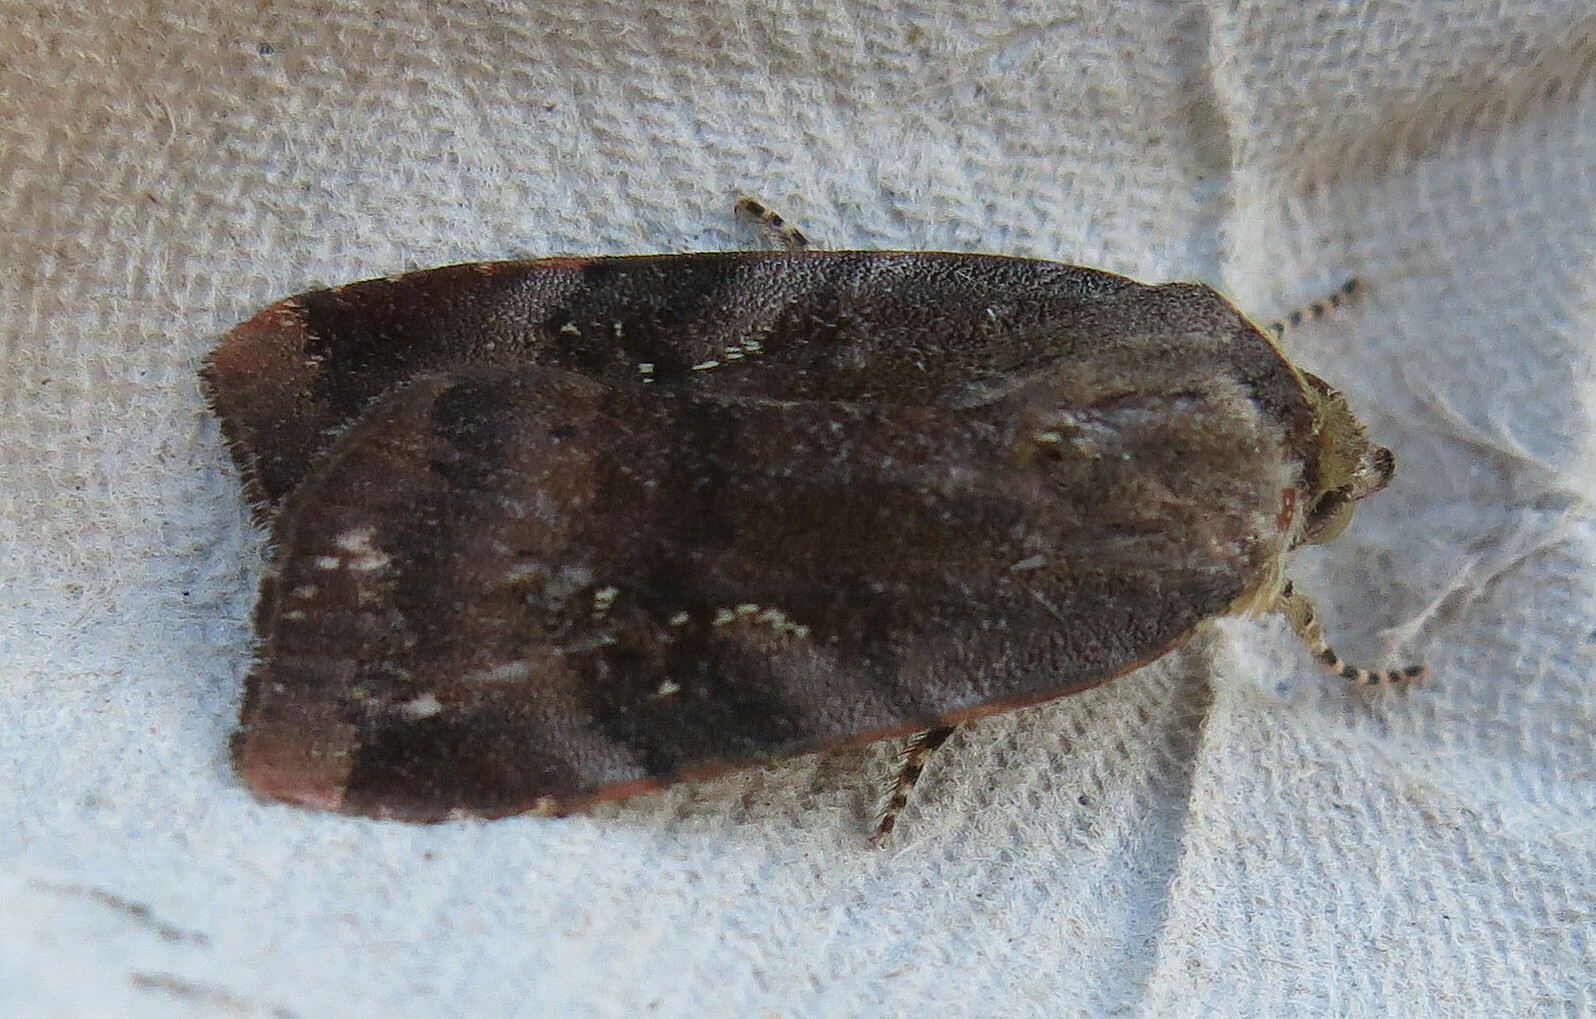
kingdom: Animalia
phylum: Arthropoda
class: Insecta
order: Lepidoptera
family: Noctuidae
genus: Noctua
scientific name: Noctua janthe
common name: Lesser broad-bordered yellow underwing
